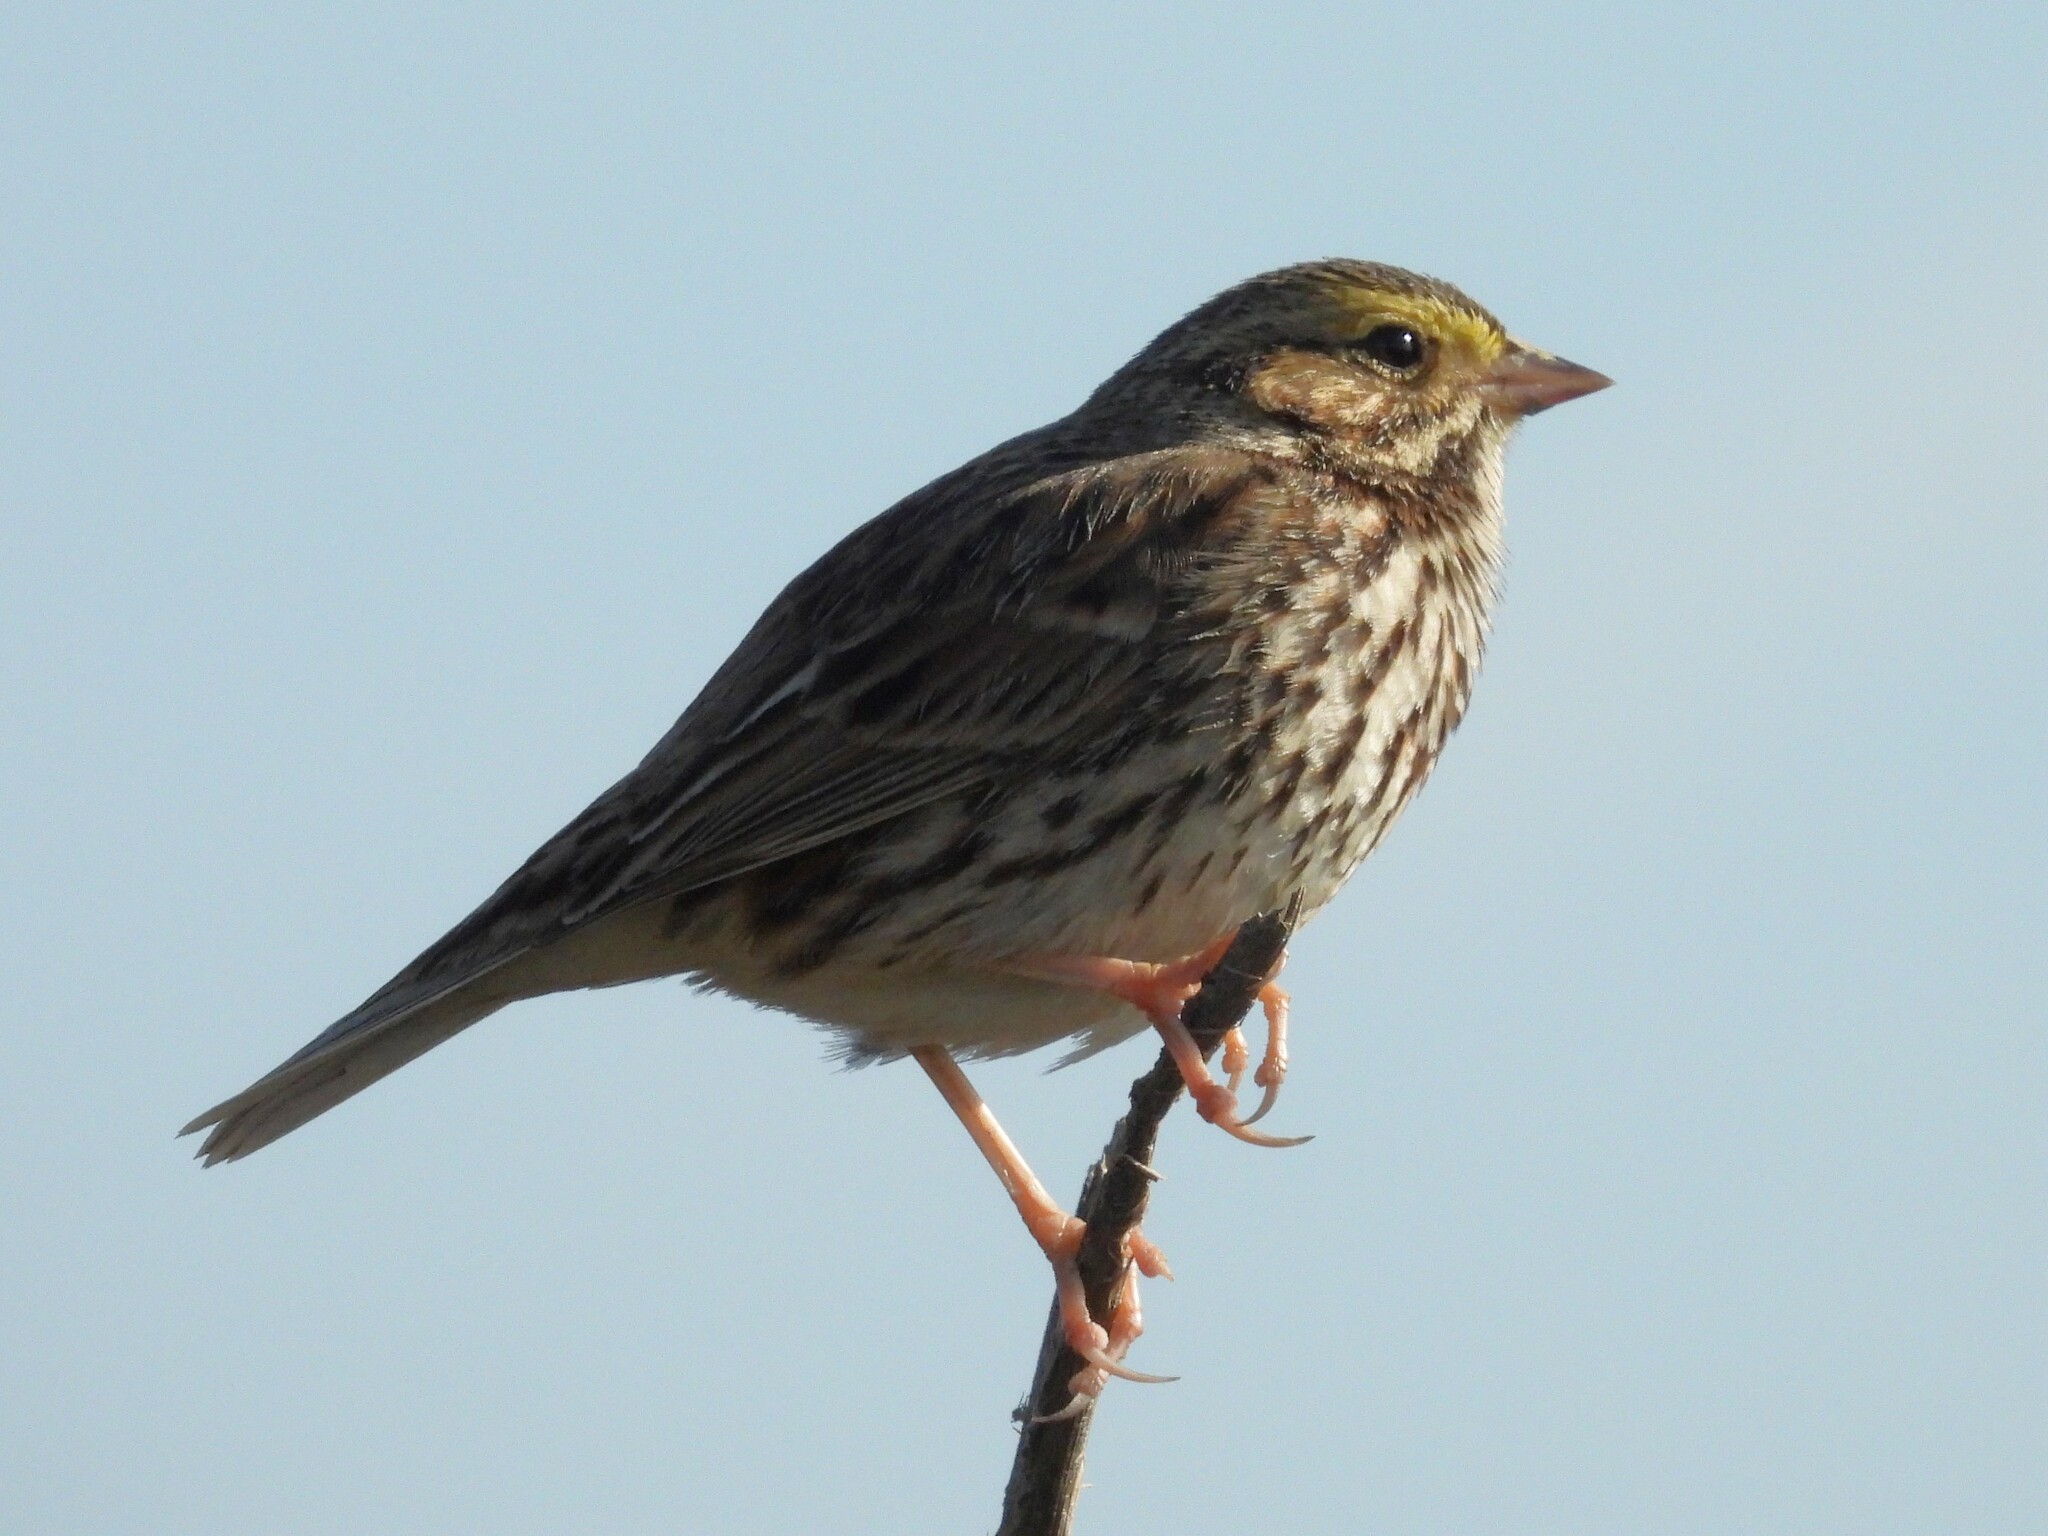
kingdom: Animalia
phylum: Chordata
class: Aves
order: Passeriformes
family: Passerellidae
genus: Passerculus
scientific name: Passerculus sandwichensis
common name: Savannah sparrow
